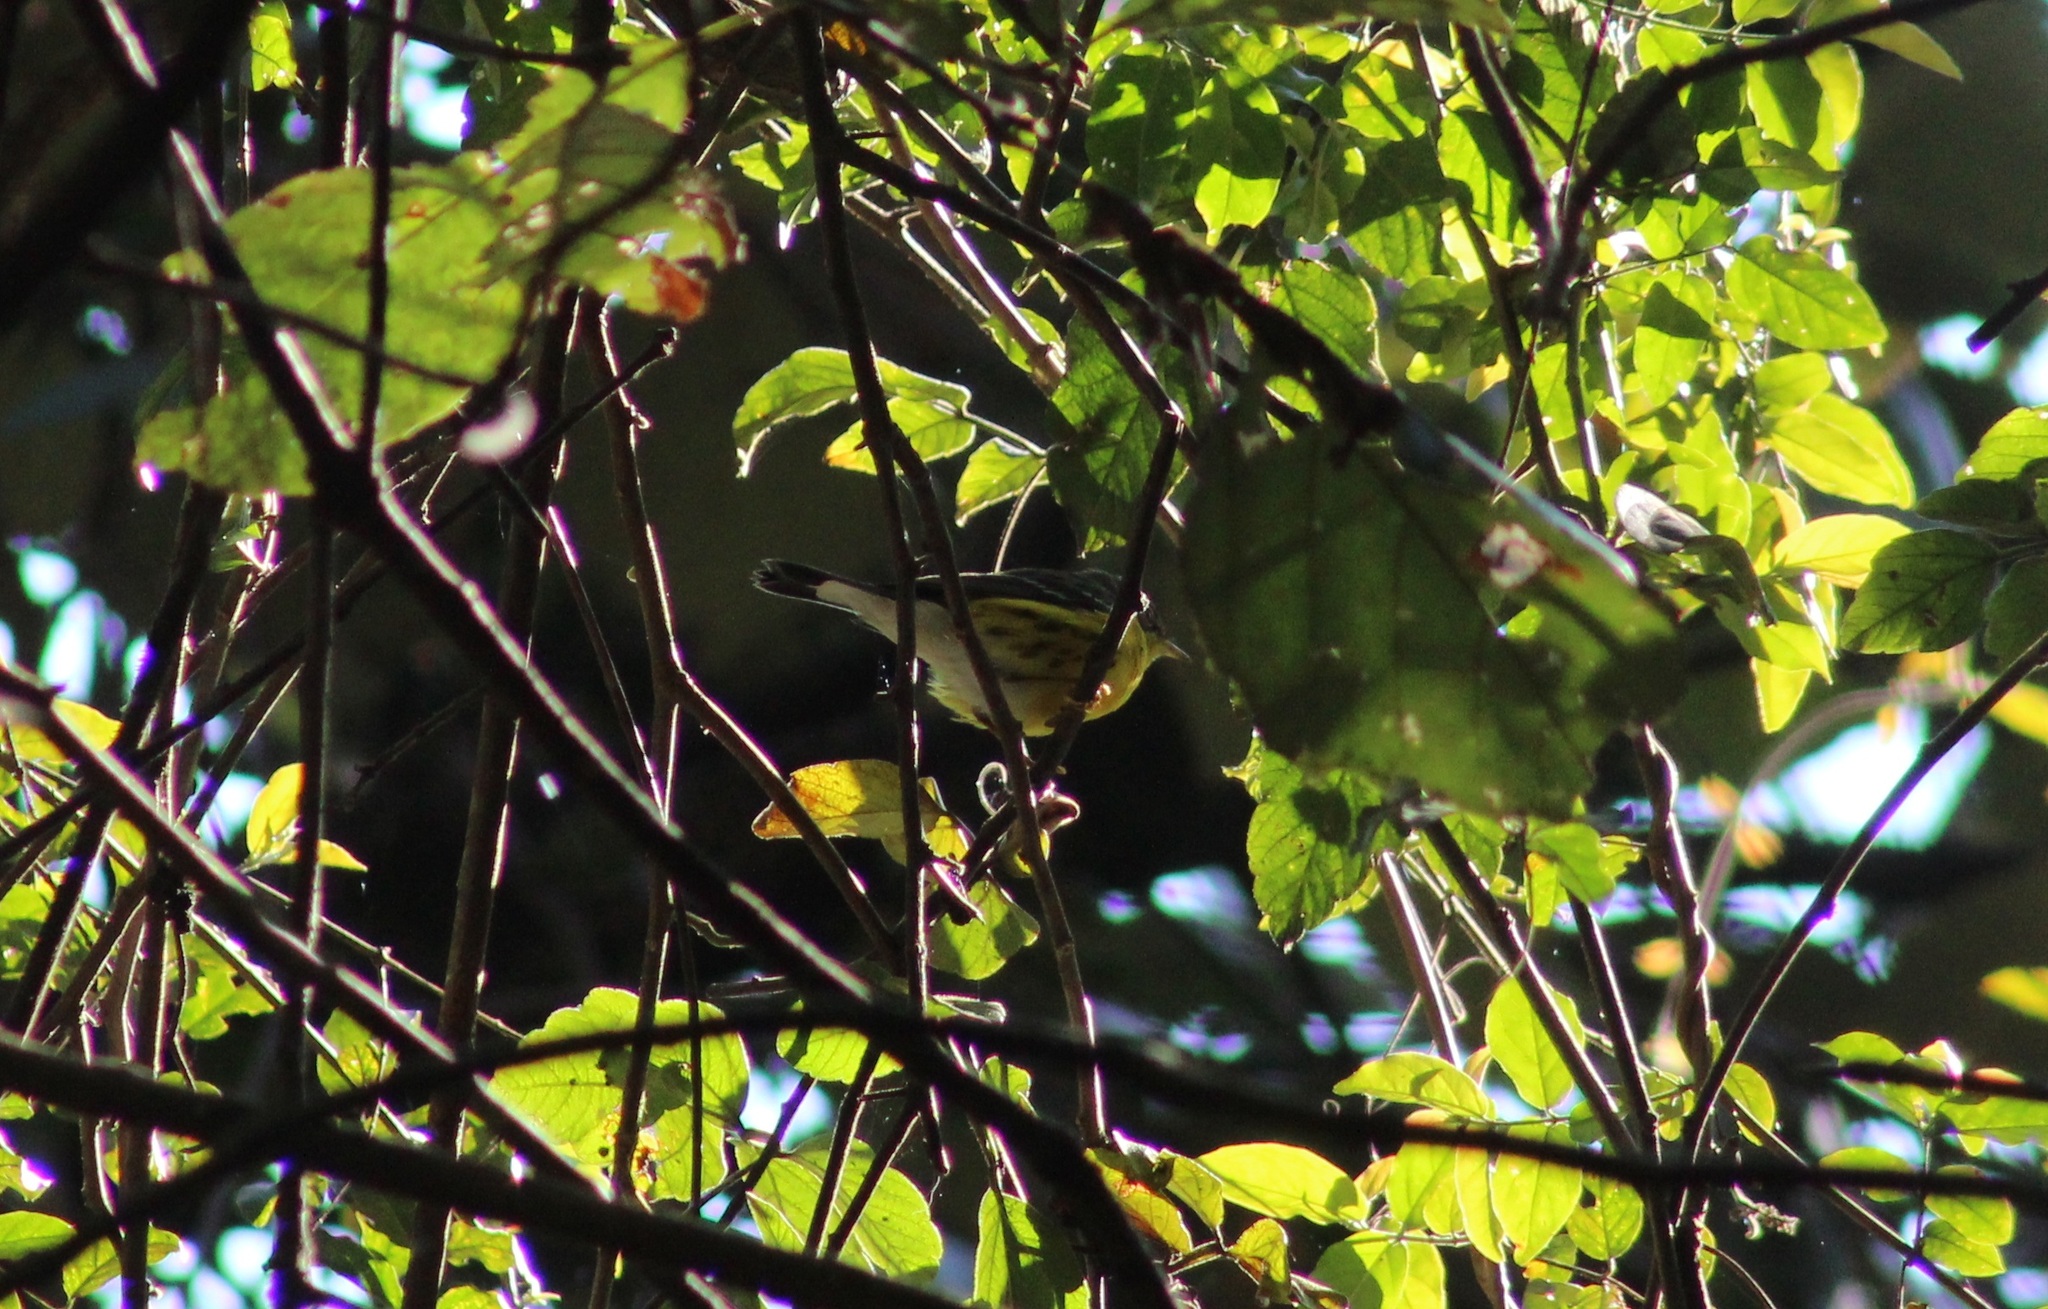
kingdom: Animalia
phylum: Chordata
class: Aves
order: Passeriformes
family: Parulidae
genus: Setophaga
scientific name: Setophaga magnolia
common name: Magnolia warbler
